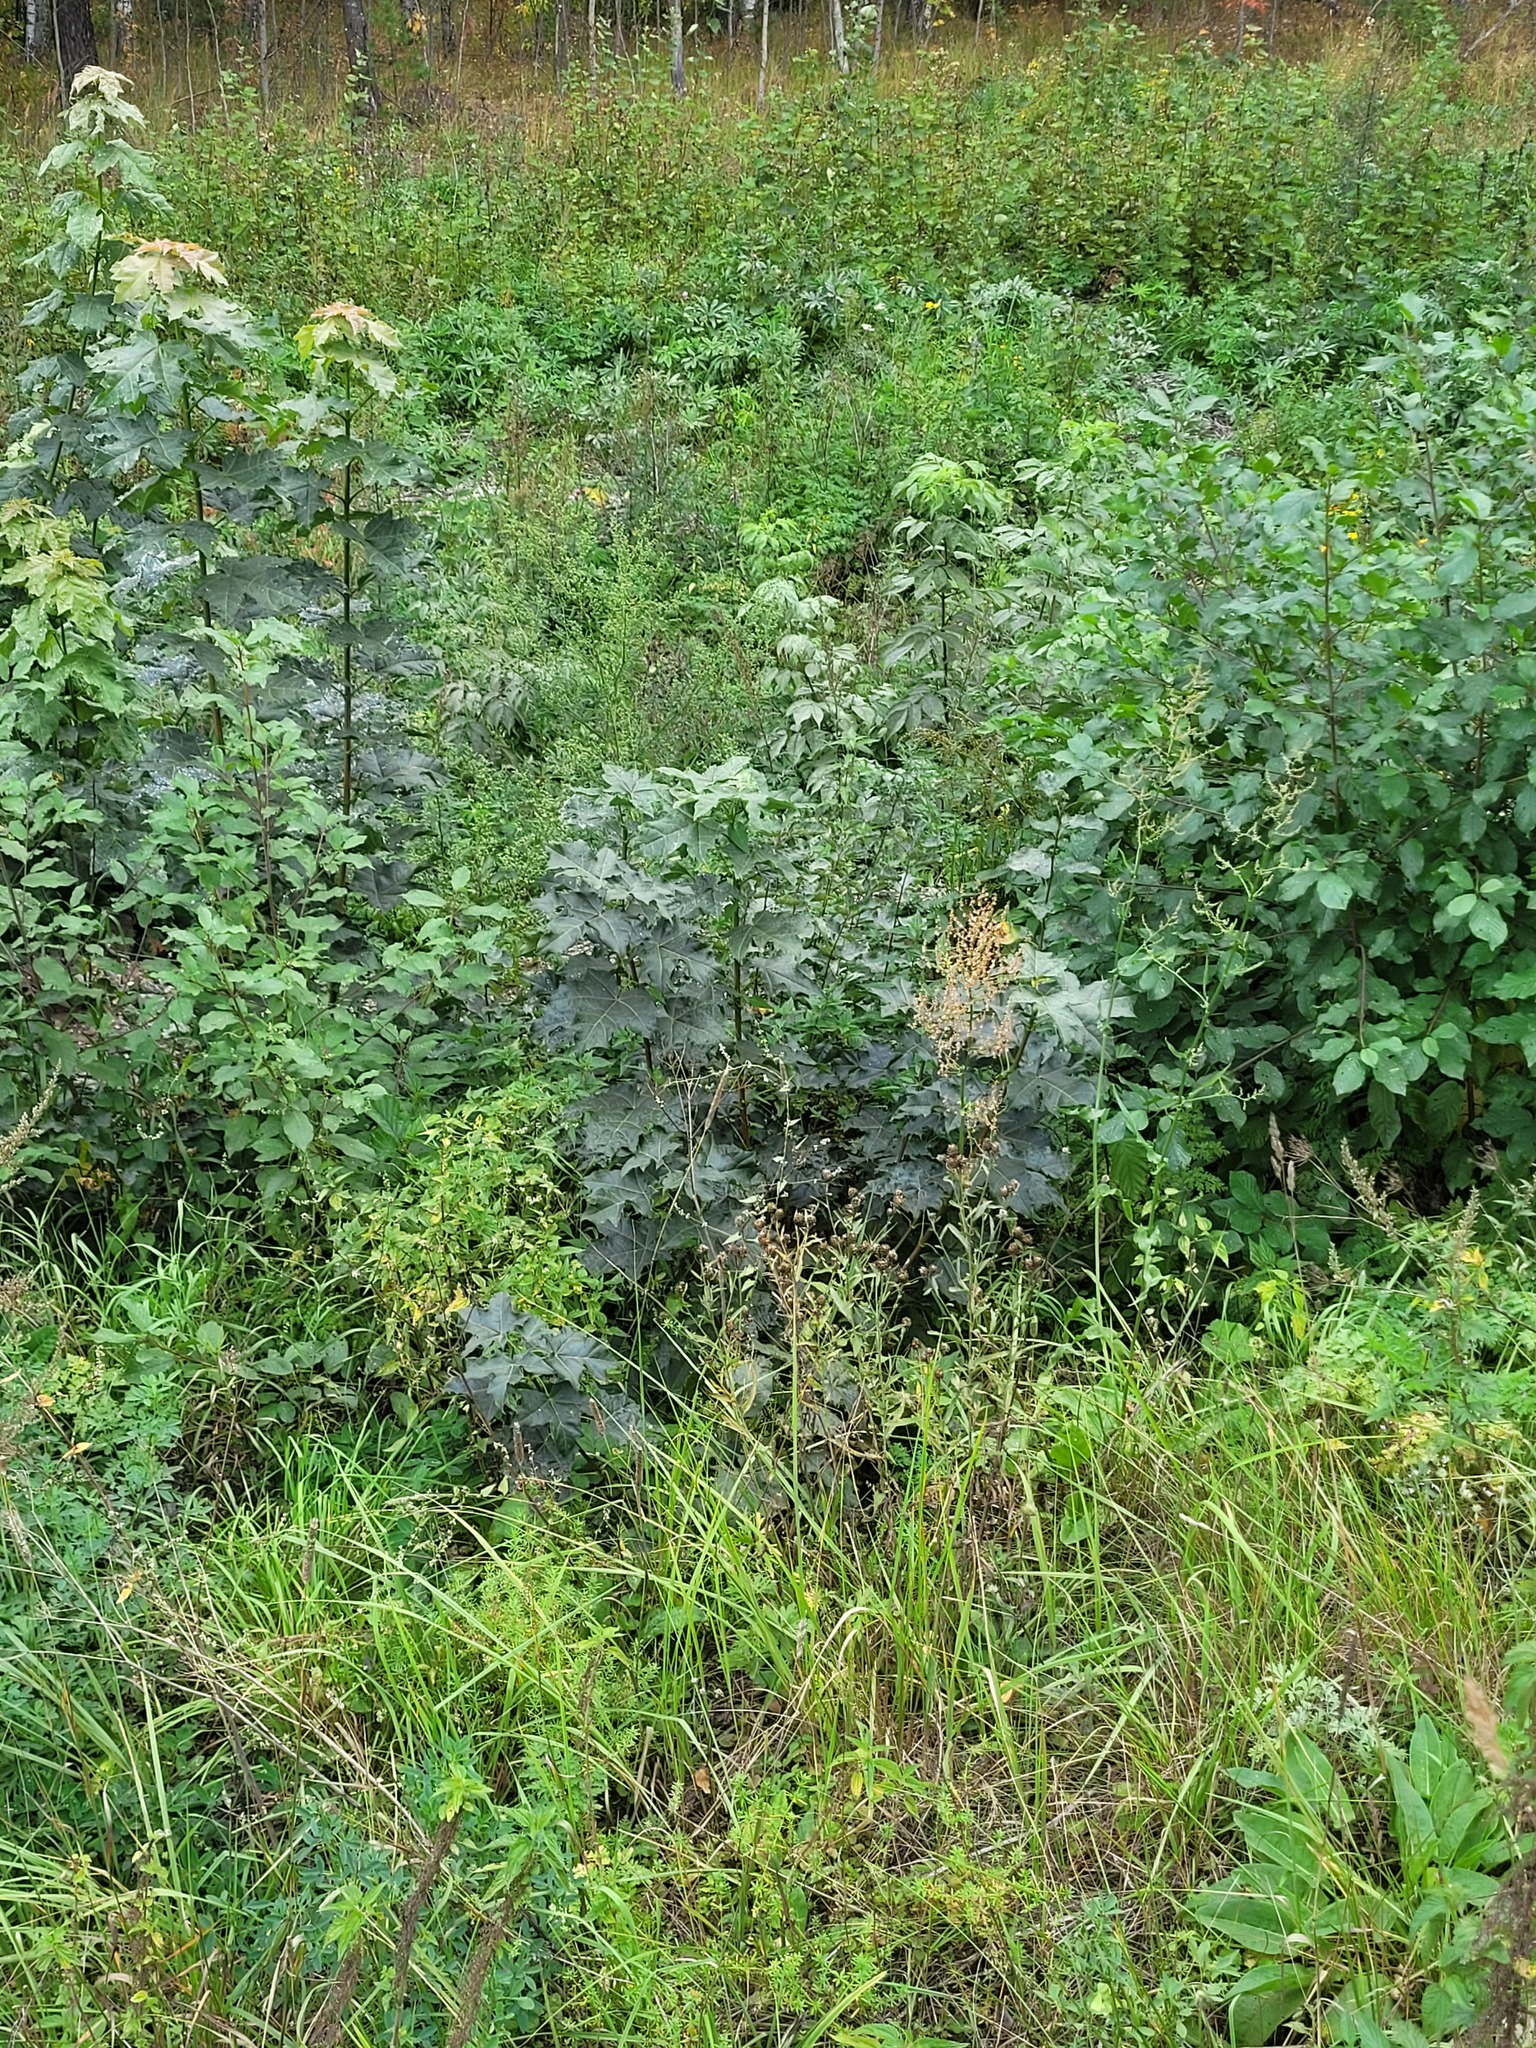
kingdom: Plantae
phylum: Tracheophyta
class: Magnoliopsida
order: Sapindales
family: Sapindaceae
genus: Acer
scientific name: Acer platanoides
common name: Norway maple
